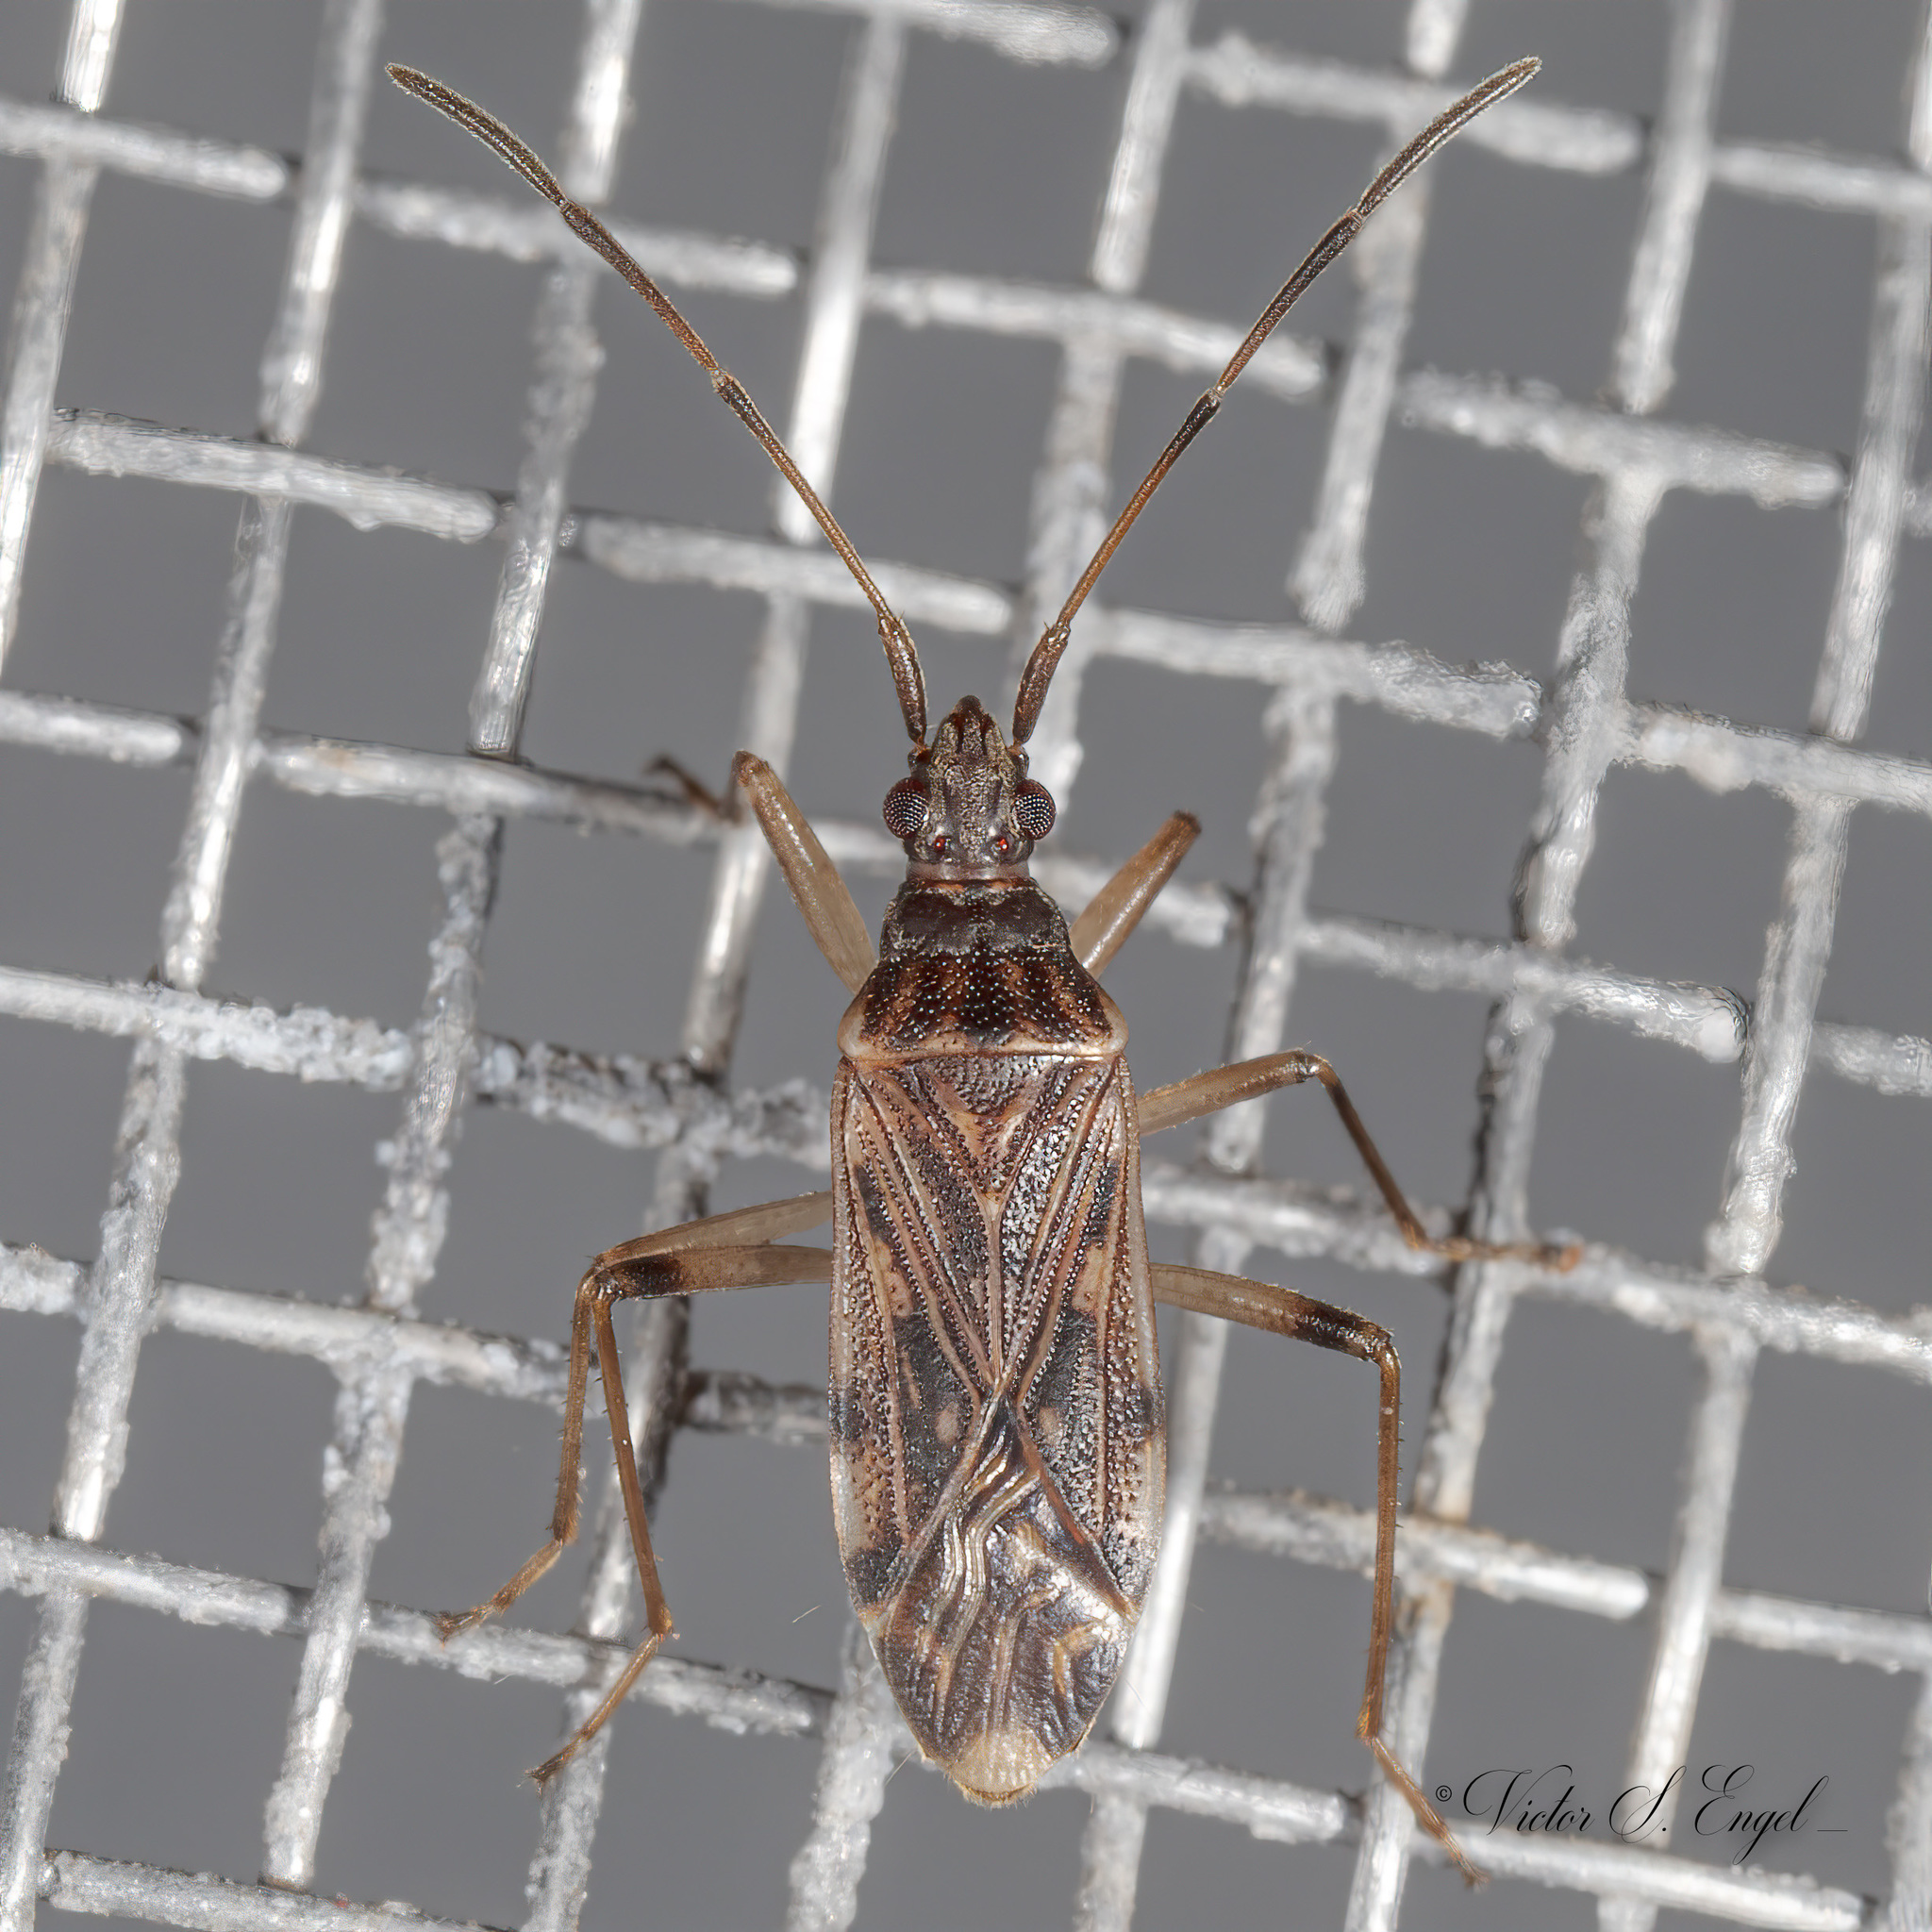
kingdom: Animalia
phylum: Arthropoda
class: Insecta
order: Hemiptera
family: Rhyparochromidae
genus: Ozophora
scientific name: Ozophora salsaverdeae
